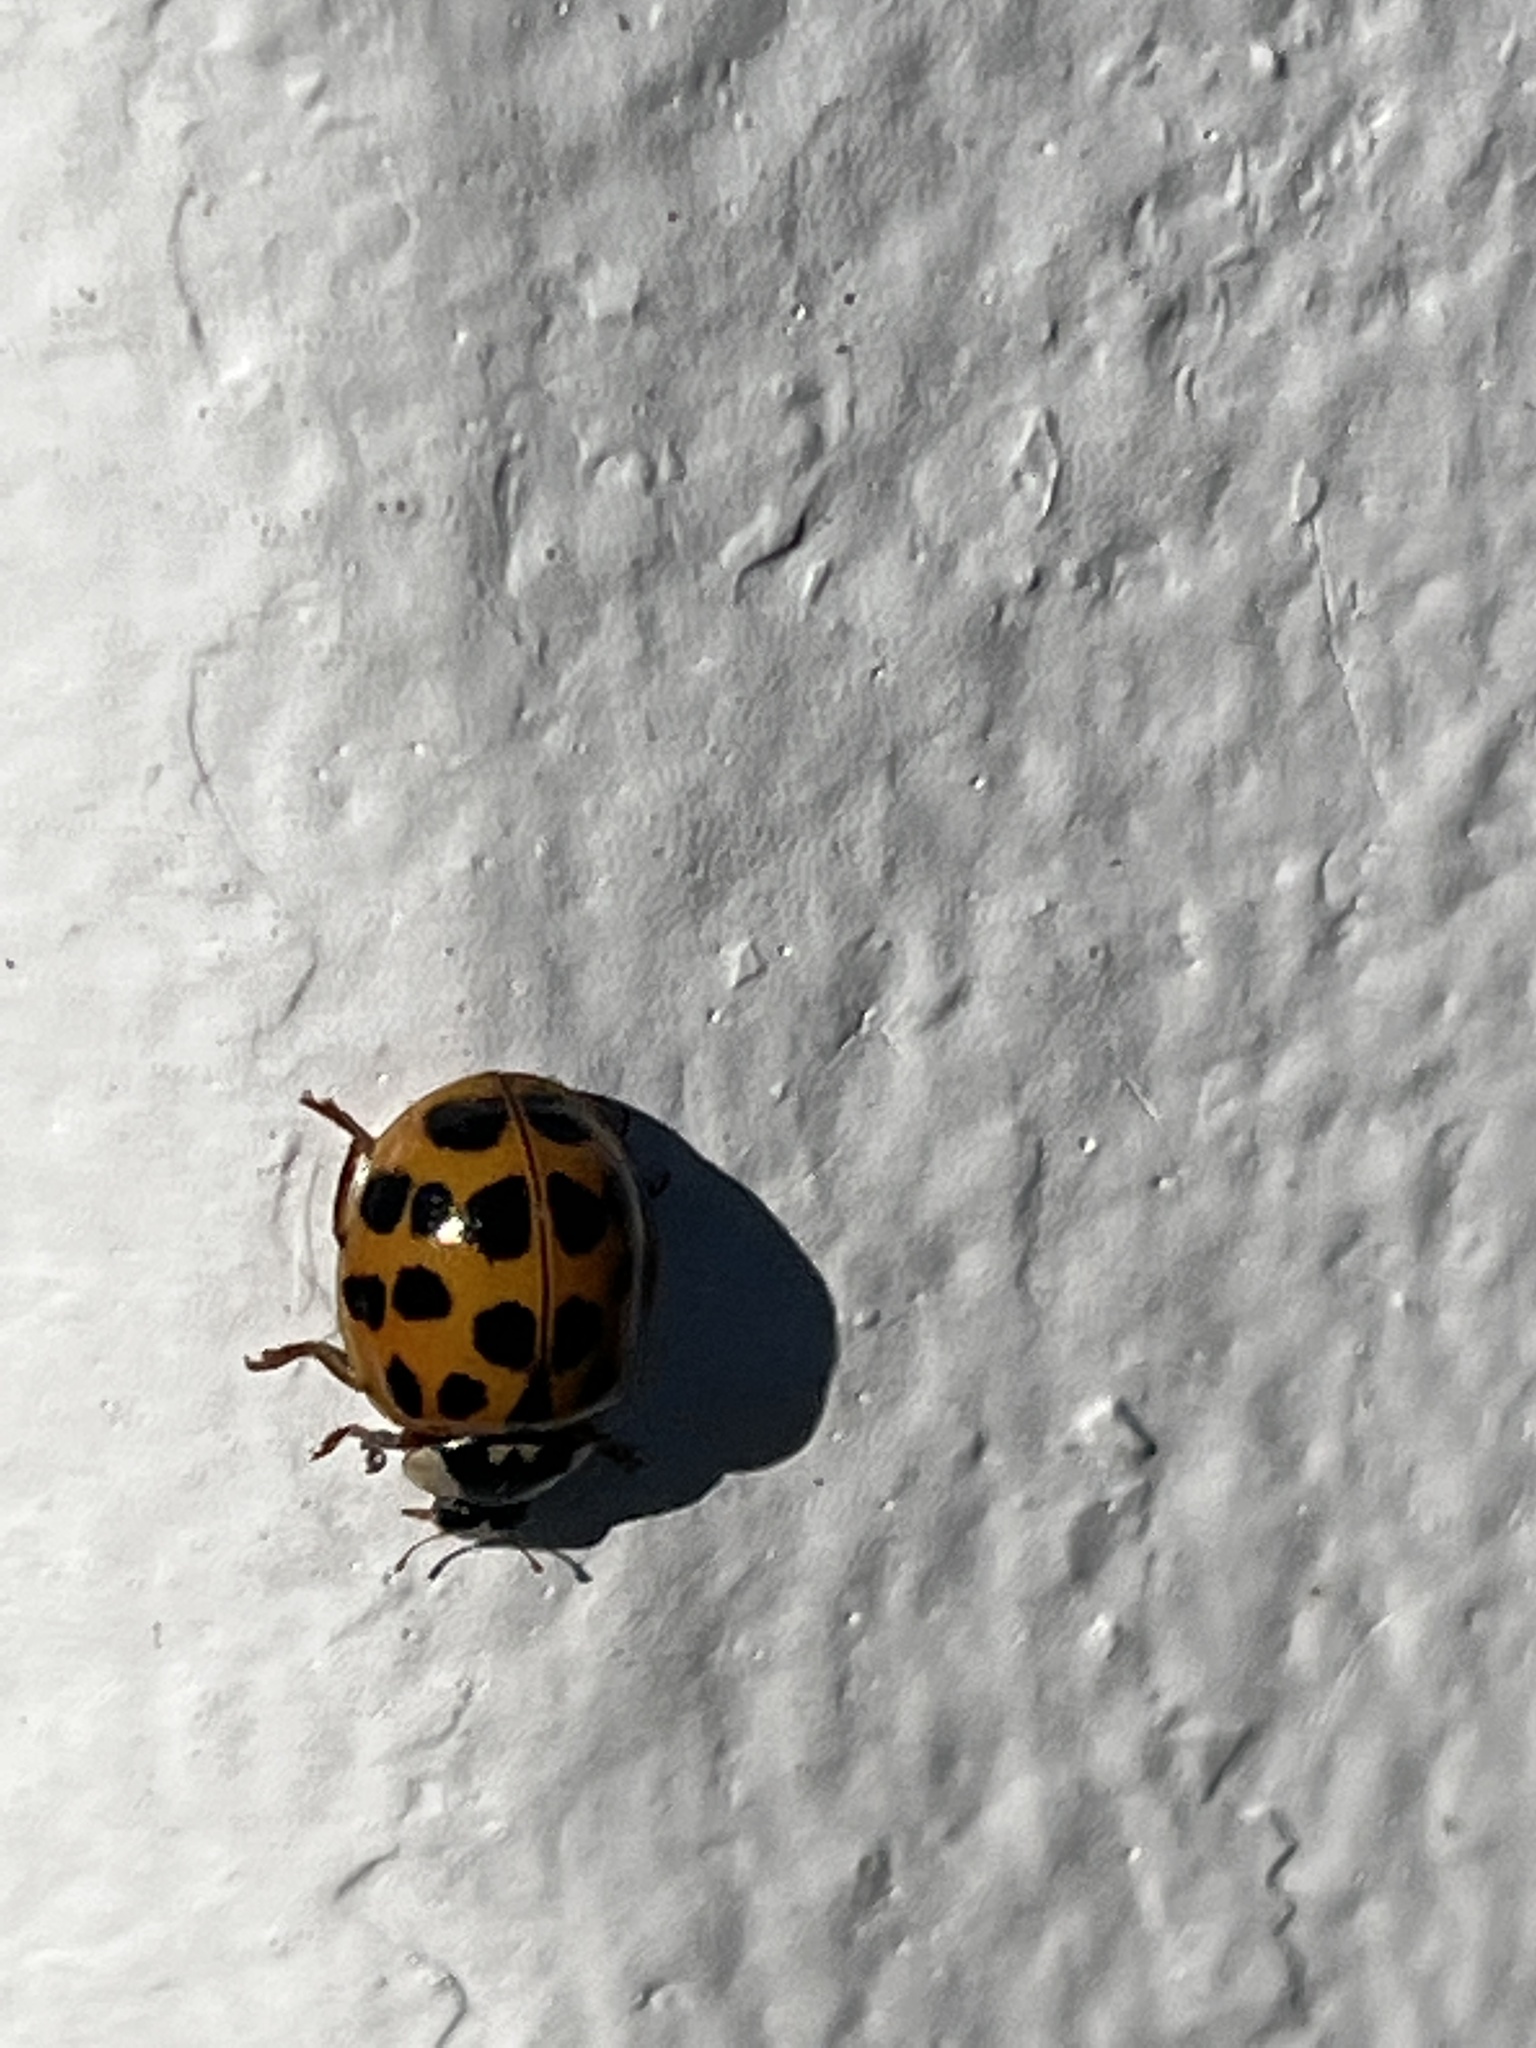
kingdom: Animalia
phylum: Arthropoda
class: Insecta
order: Coleoptera
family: Coccinellidae
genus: Harmonia
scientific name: Harmonia axyridis
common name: Harlequin ladybird
